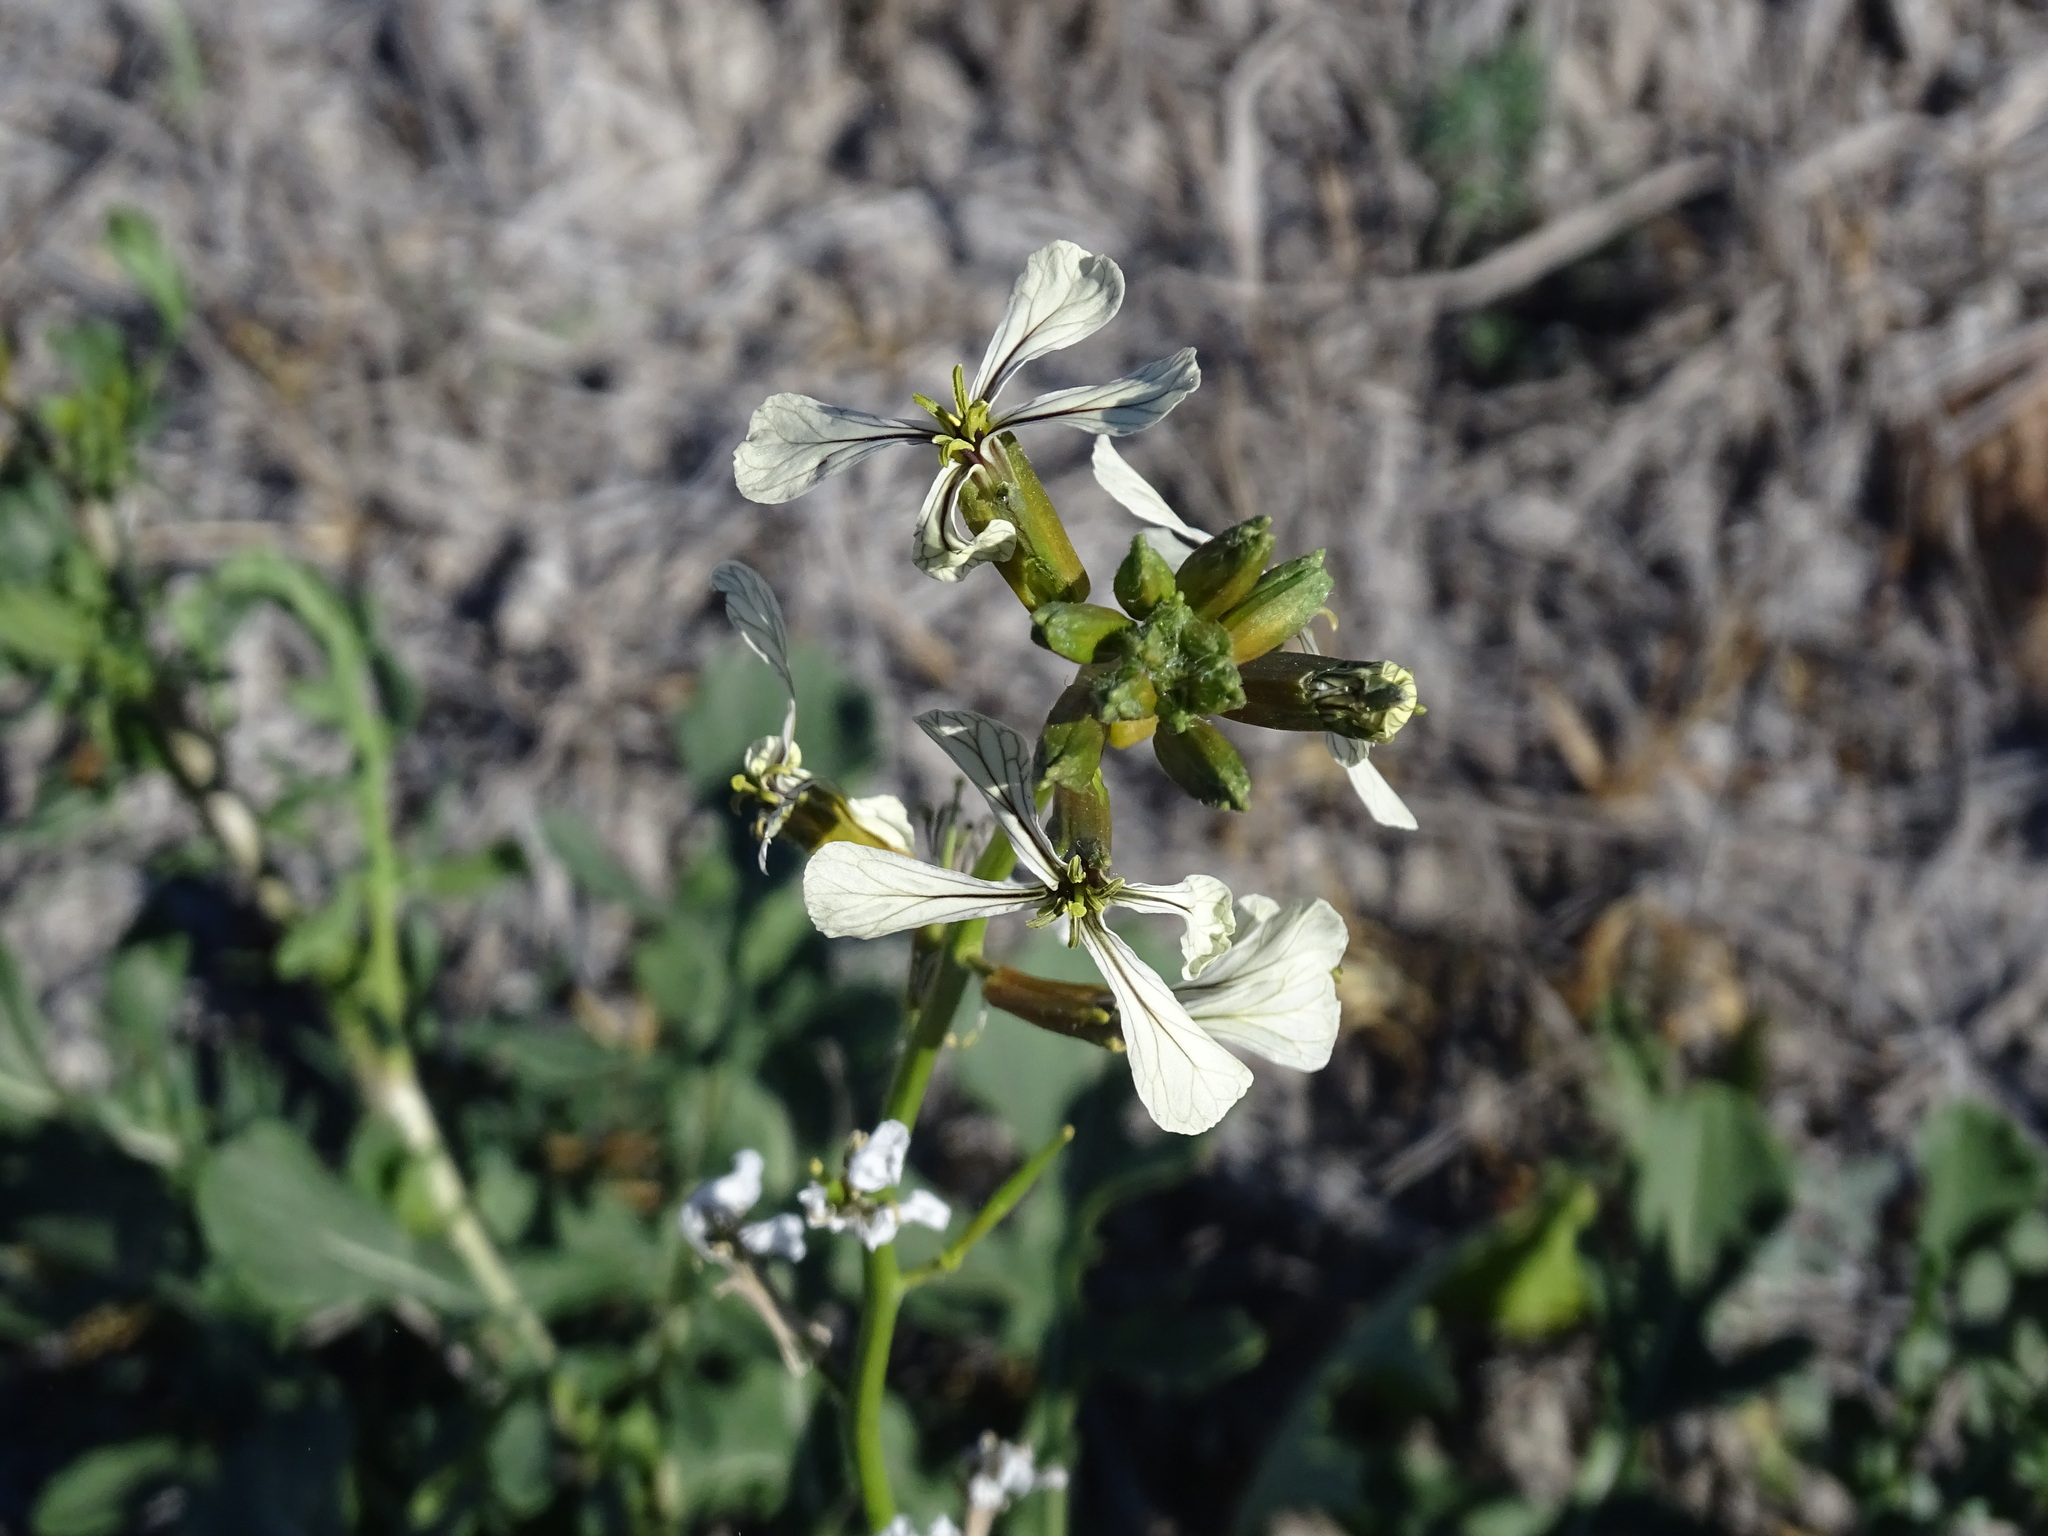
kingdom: Plantae
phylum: Tracheophyta
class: Magnoliopsida
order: Brassicales
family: Brassicaceae
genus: Eruca
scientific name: Eruca vesicaria
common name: Garden rocket
